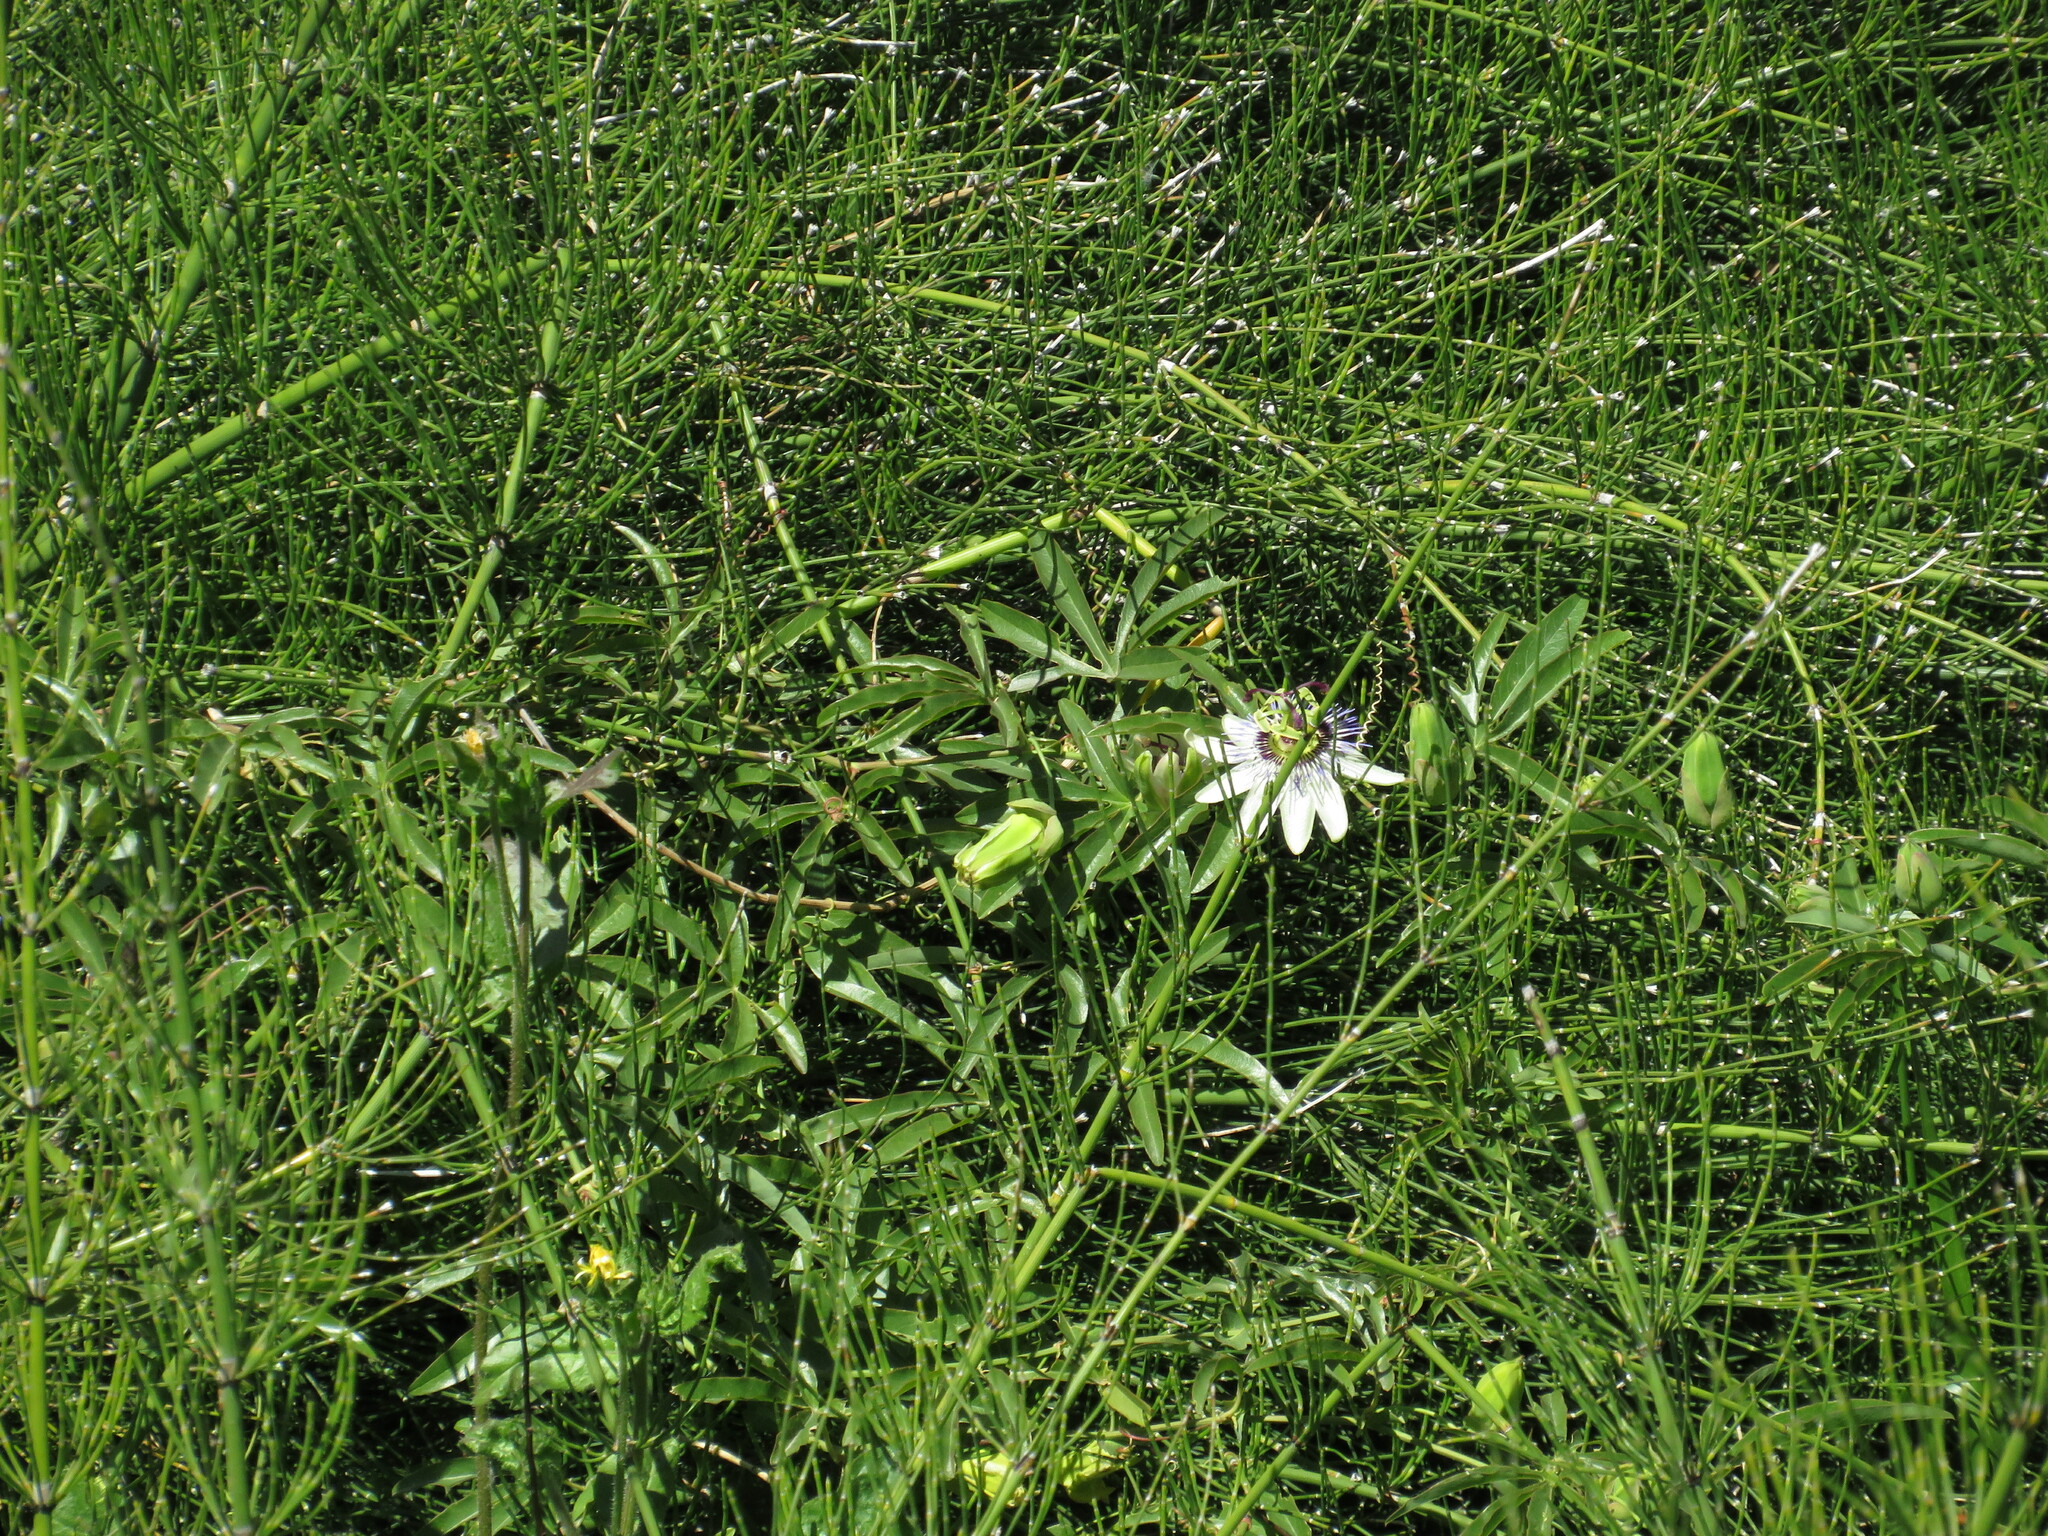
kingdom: Plantae
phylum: Tracheophyta
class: Magnoliopsida
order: Malpighiales
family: Passifloraceae
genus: Passiflora
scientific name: Passiflora caerulea
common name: Blue passionflower
